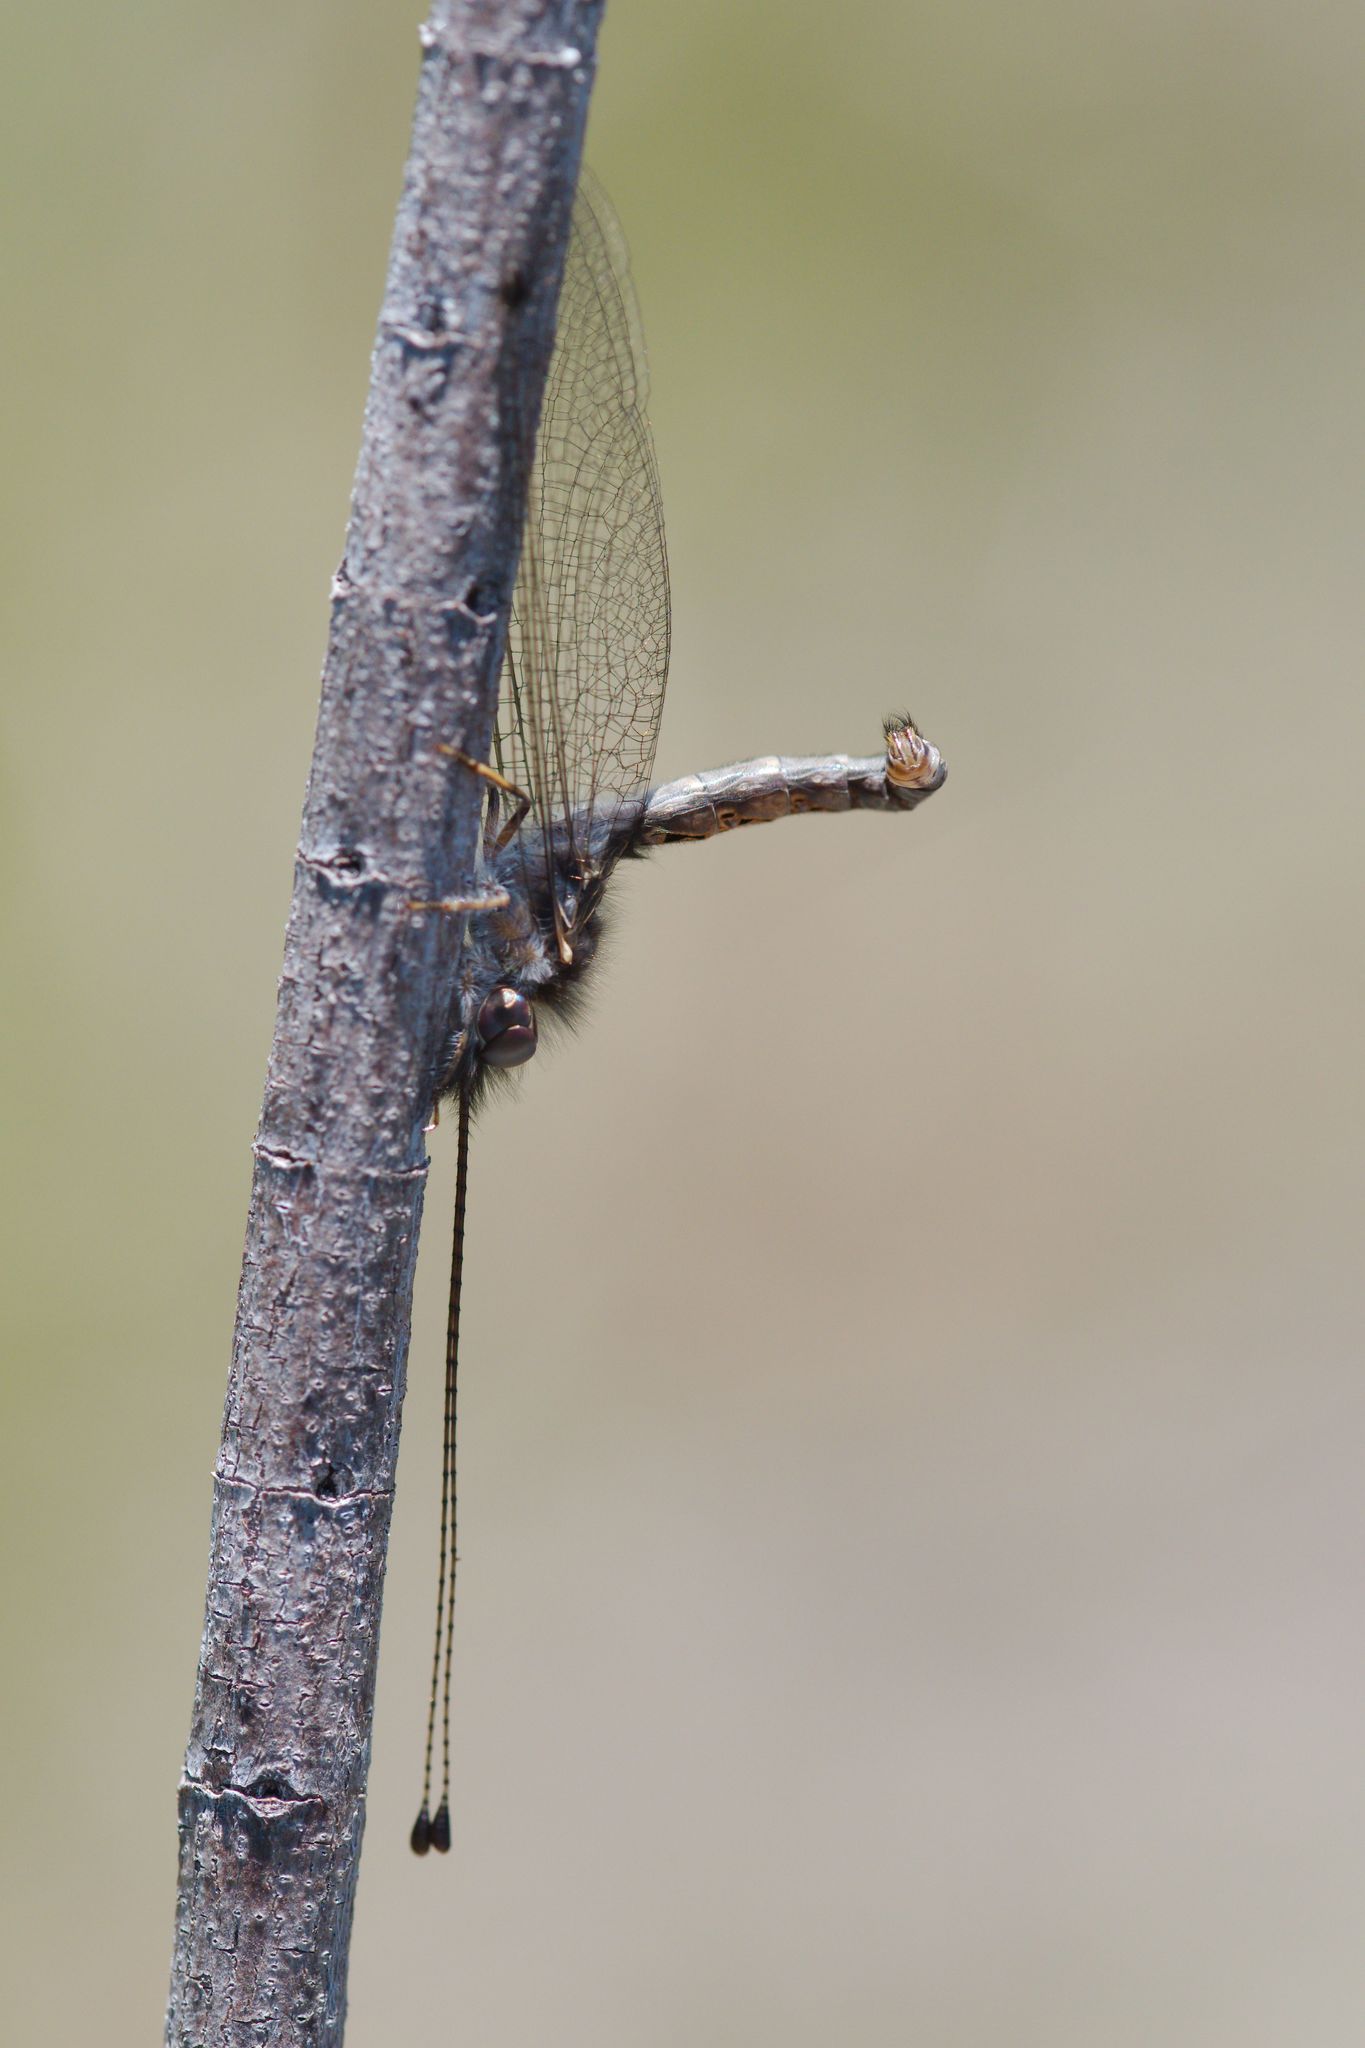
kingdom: Animalia
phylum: Arthropoda
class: Insecta
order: Neuroptera
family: Ascalaphidae
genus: Ululodes
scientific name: Ululodes macleayanus
